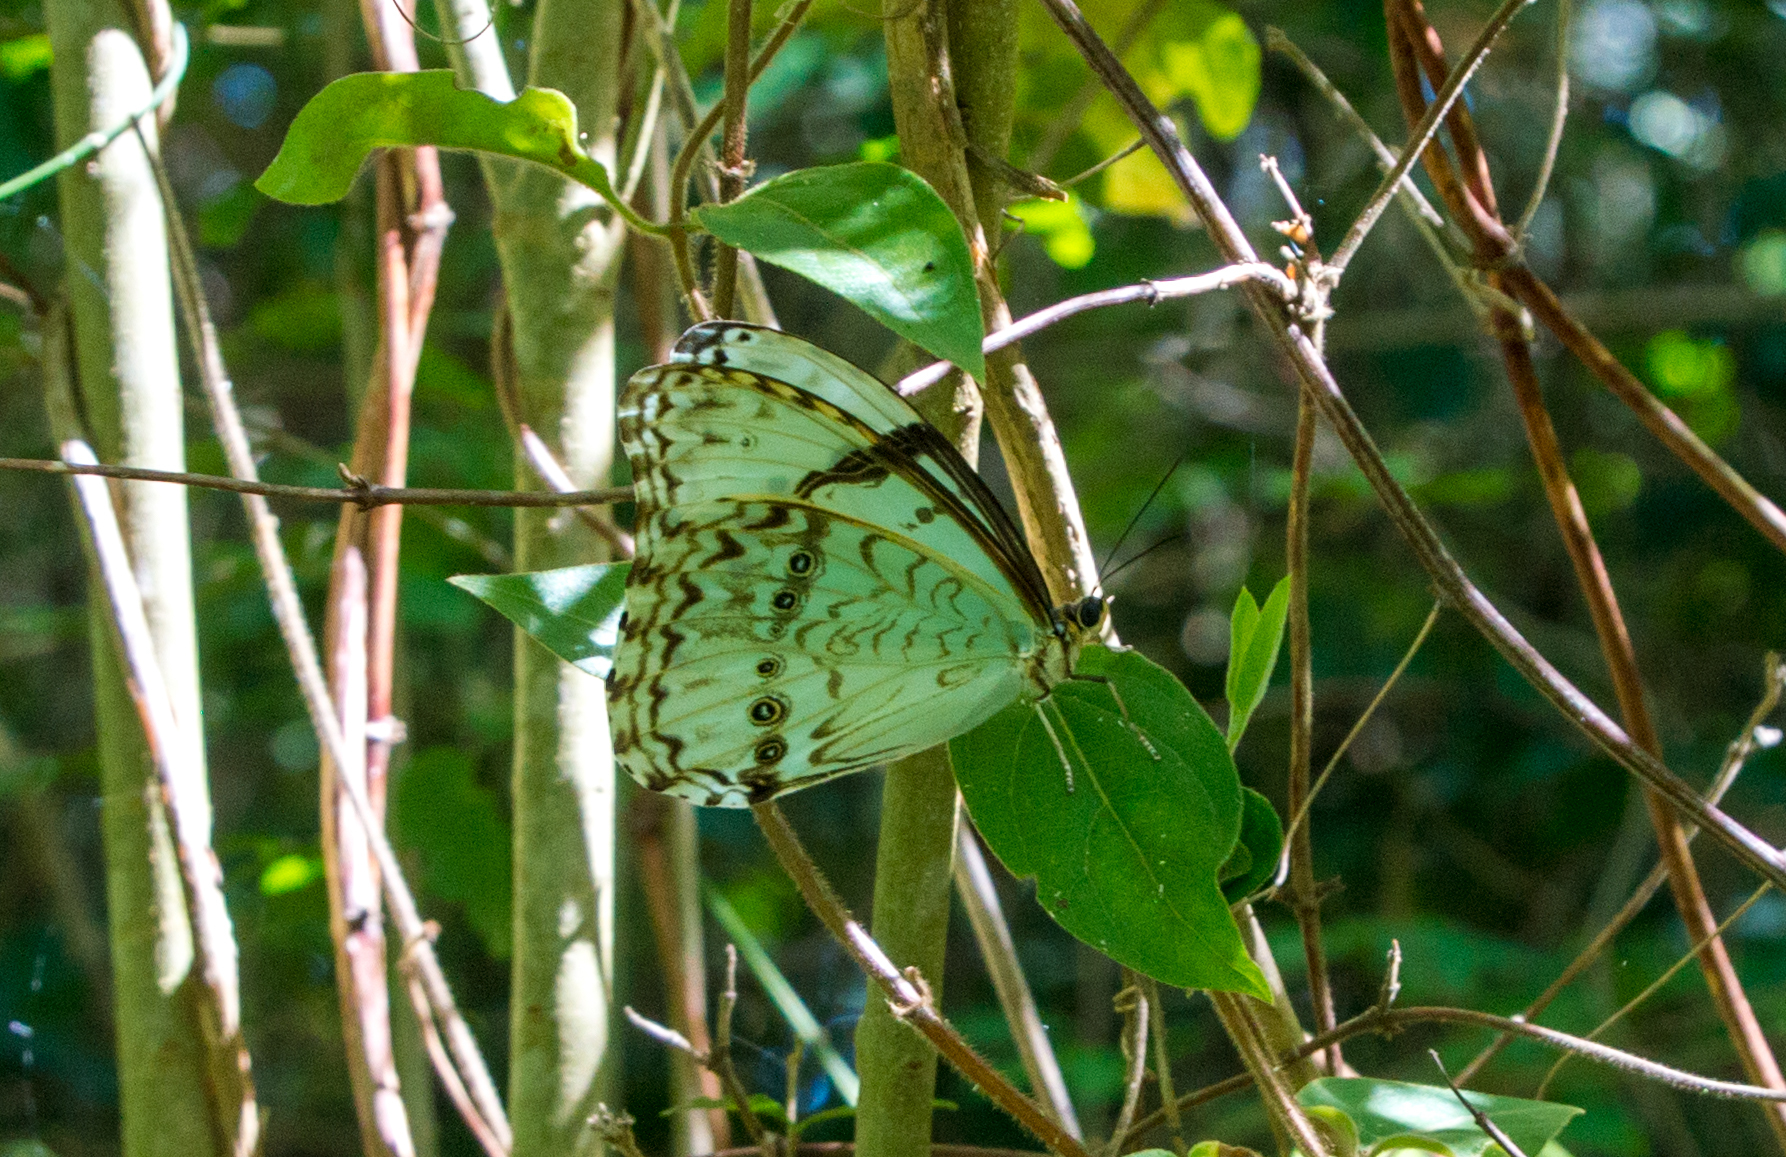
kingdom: Animalia
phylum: Arthropoda
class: Insecta
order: Lepidoptera
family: Nymphalidae
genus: Morpho
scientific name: Morpho epistrophus
